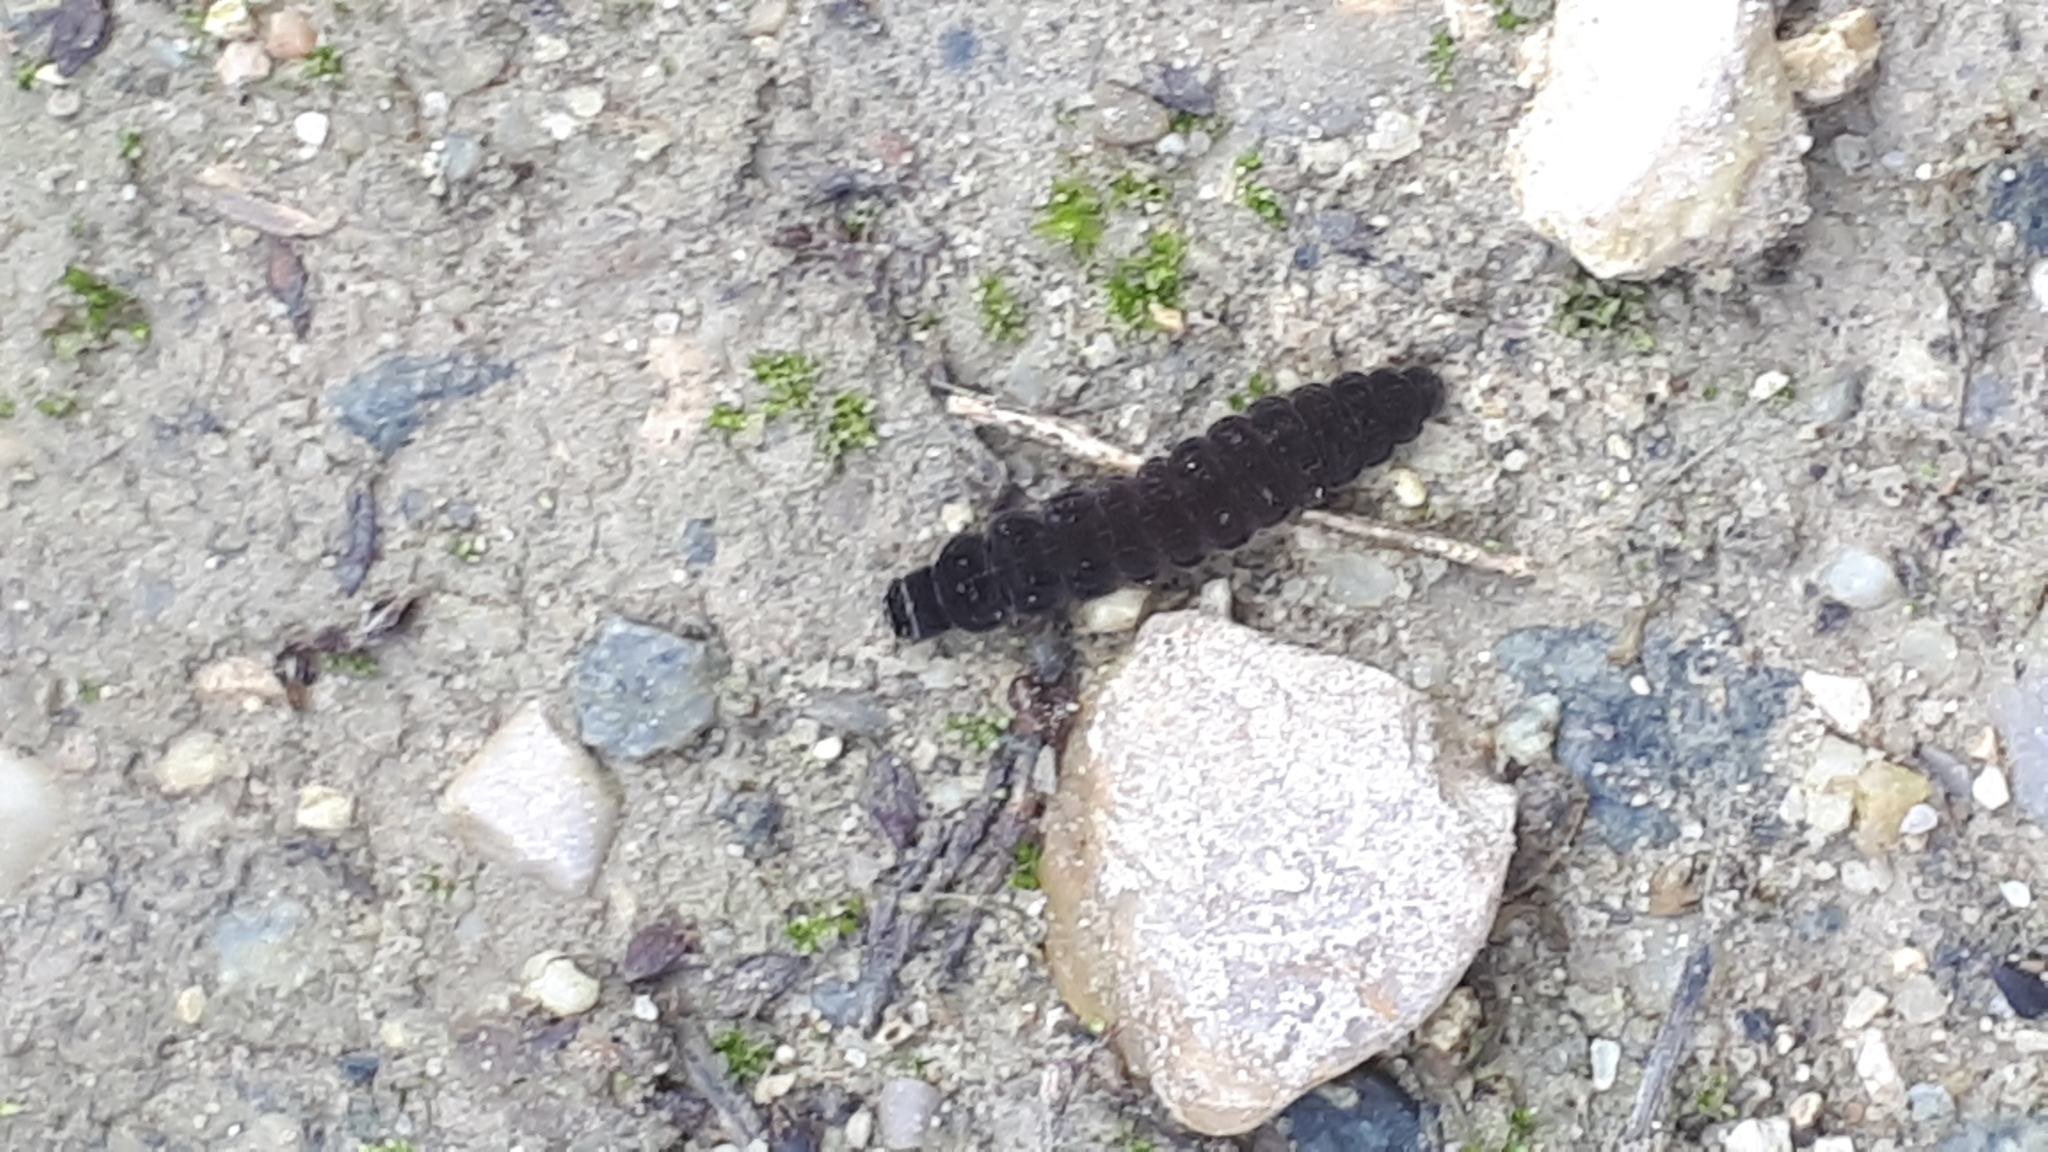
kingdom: Animalia
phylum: Arthropoda
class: Insecta
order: Coleoptera
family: Cantharidae
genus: Cantharis
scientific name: Cantharis fusca
